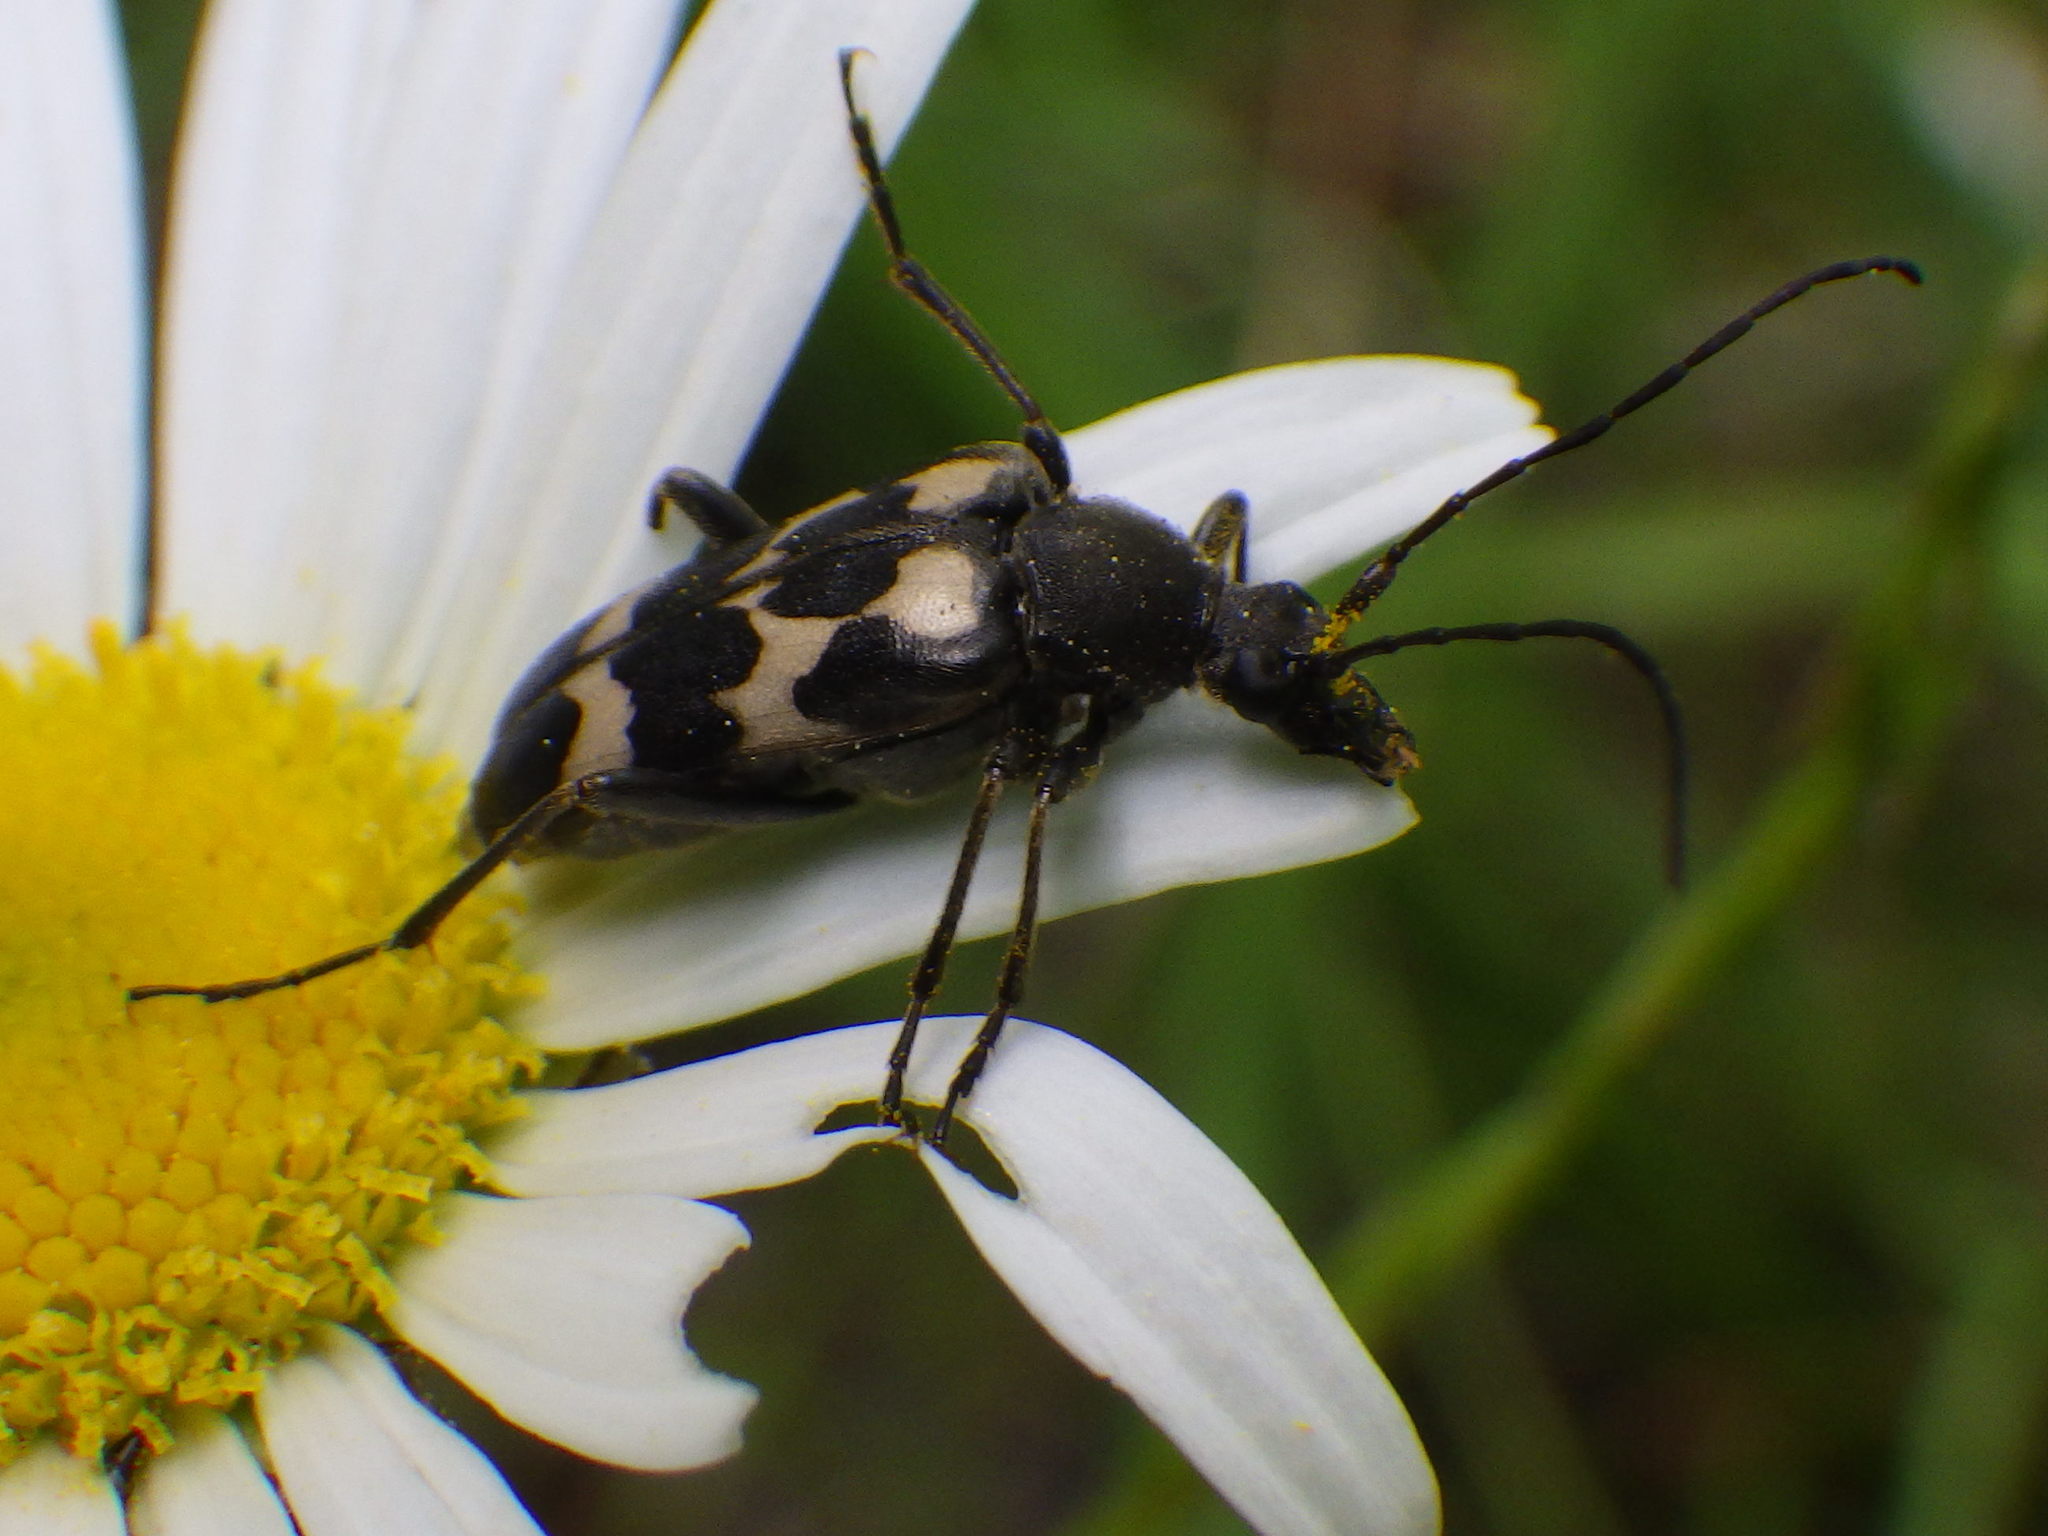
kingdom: Animalia
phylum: Arthropoda
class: Insecta
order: Coleoptera
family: Cerambycidae
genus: Judolia
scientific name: Judolia montivagans
